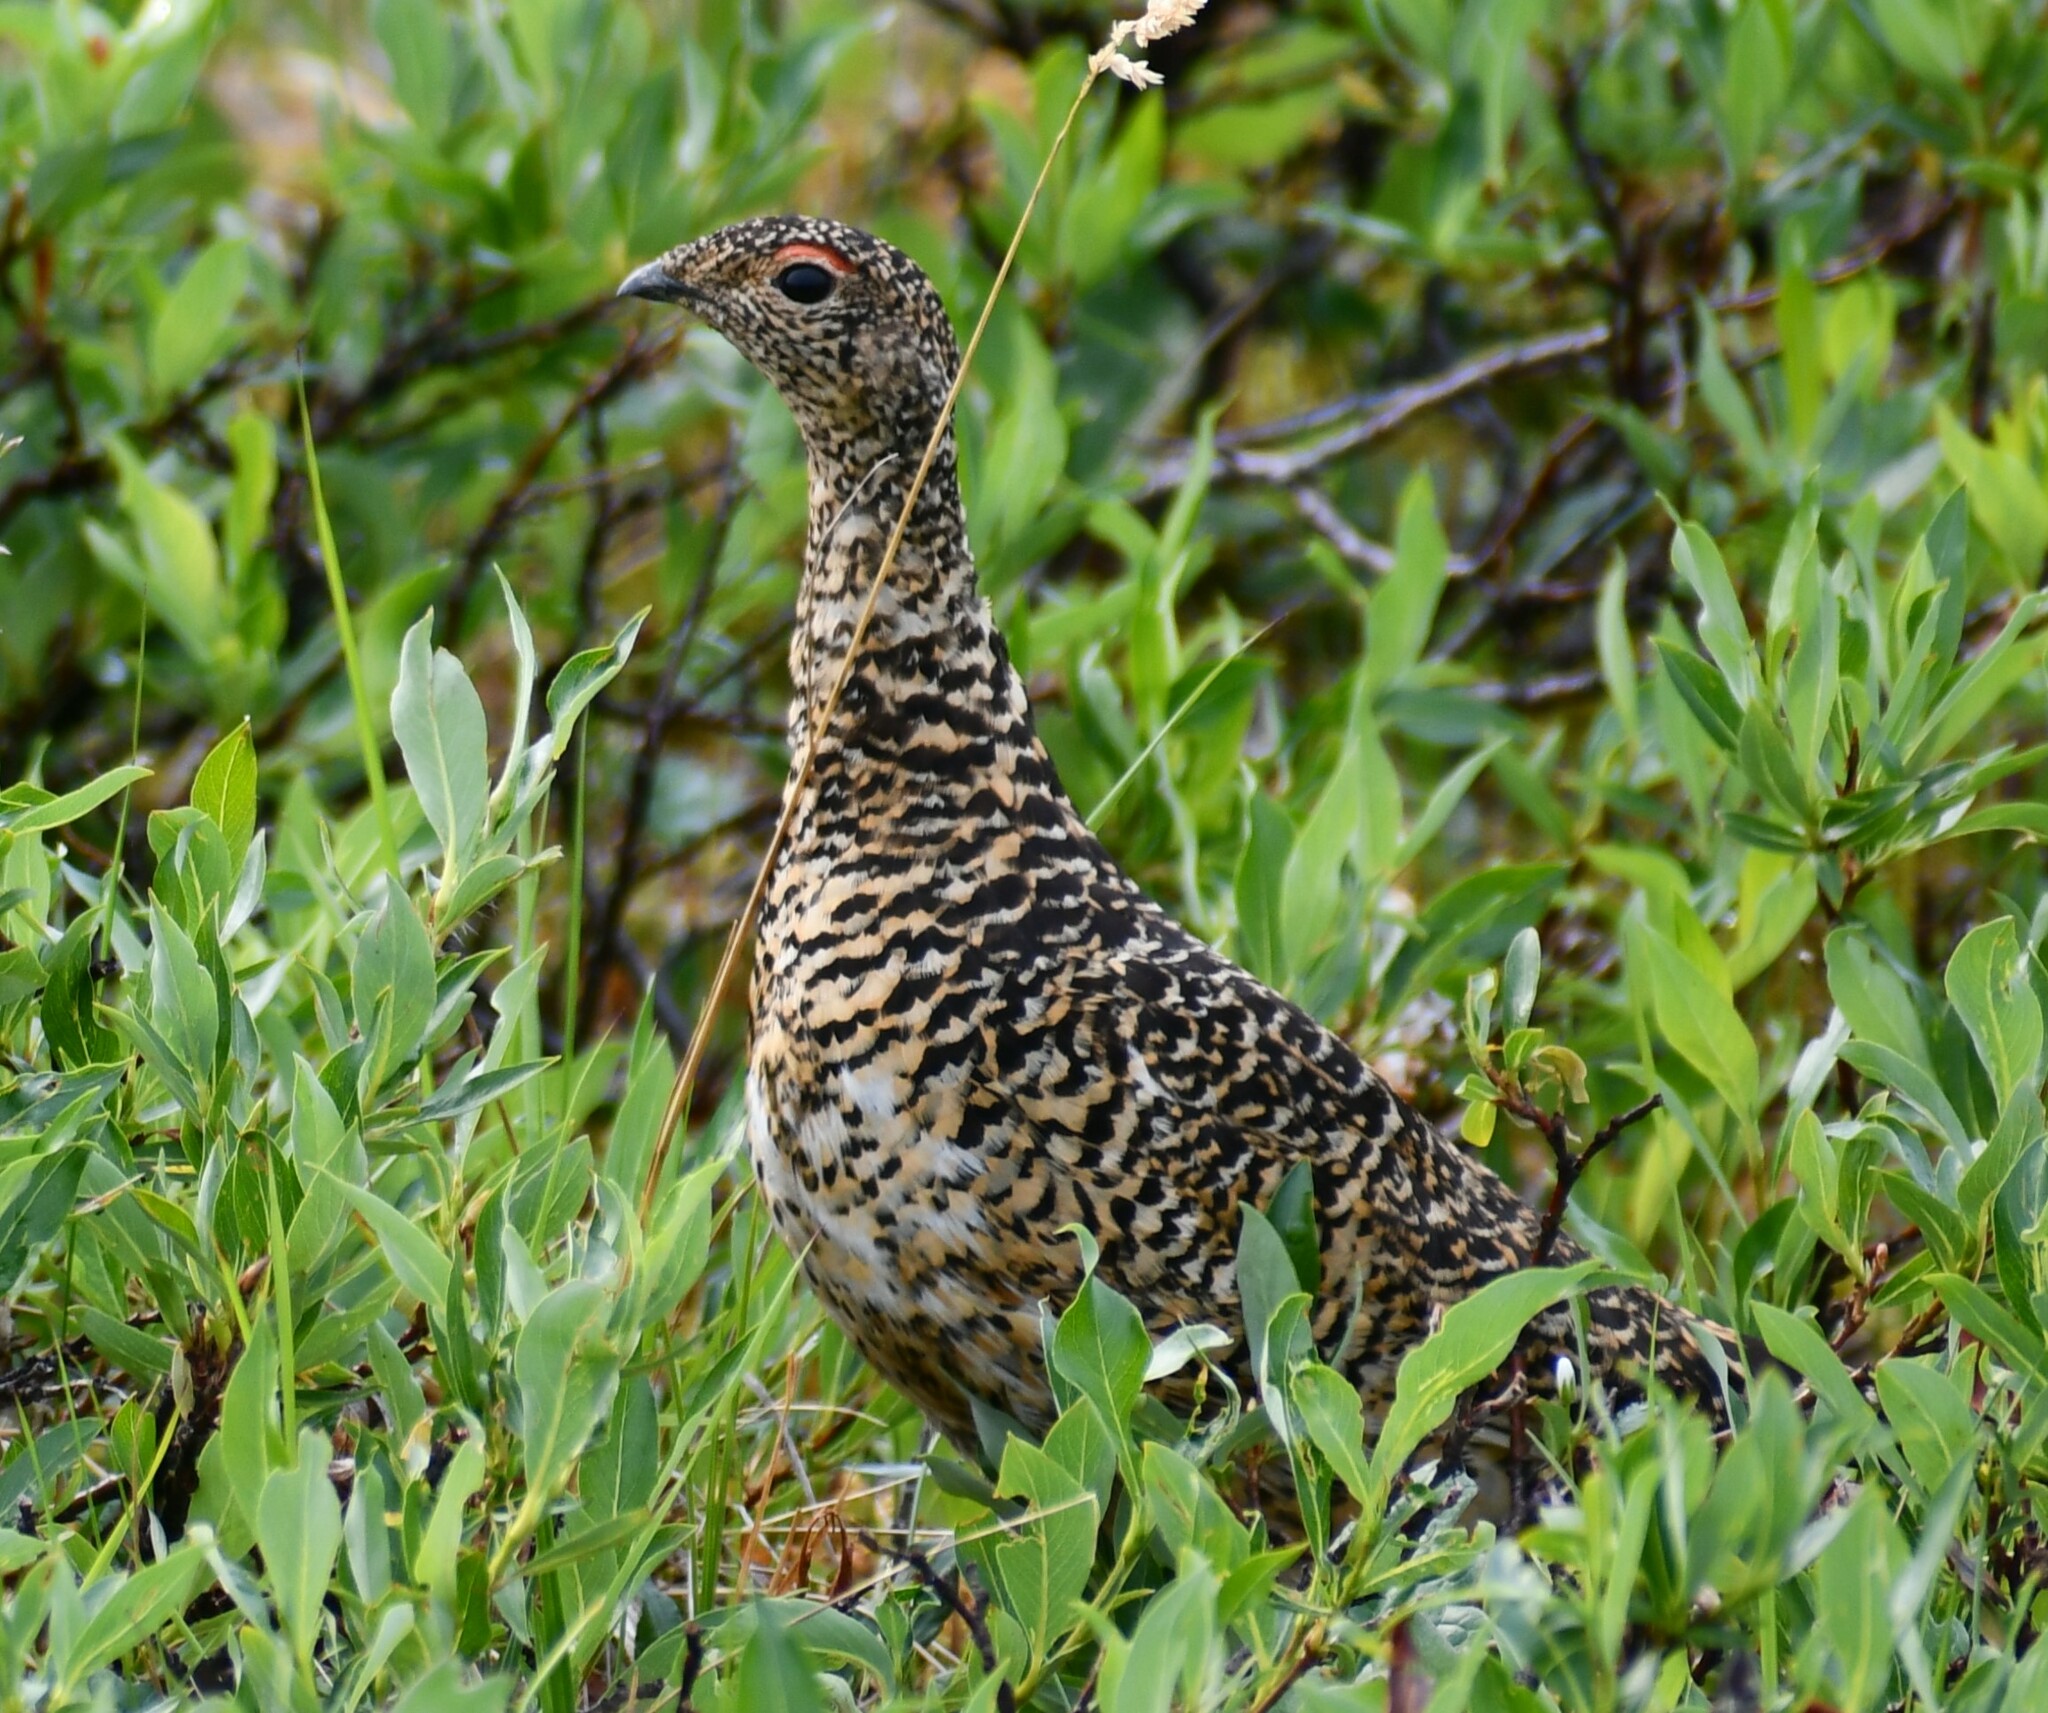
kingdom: Animalia
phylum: Chordata
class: Aves
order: Galliformes
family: Phasianidae
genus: Lagopus
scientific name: Lagopus muta
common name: Rock ptarmigan
